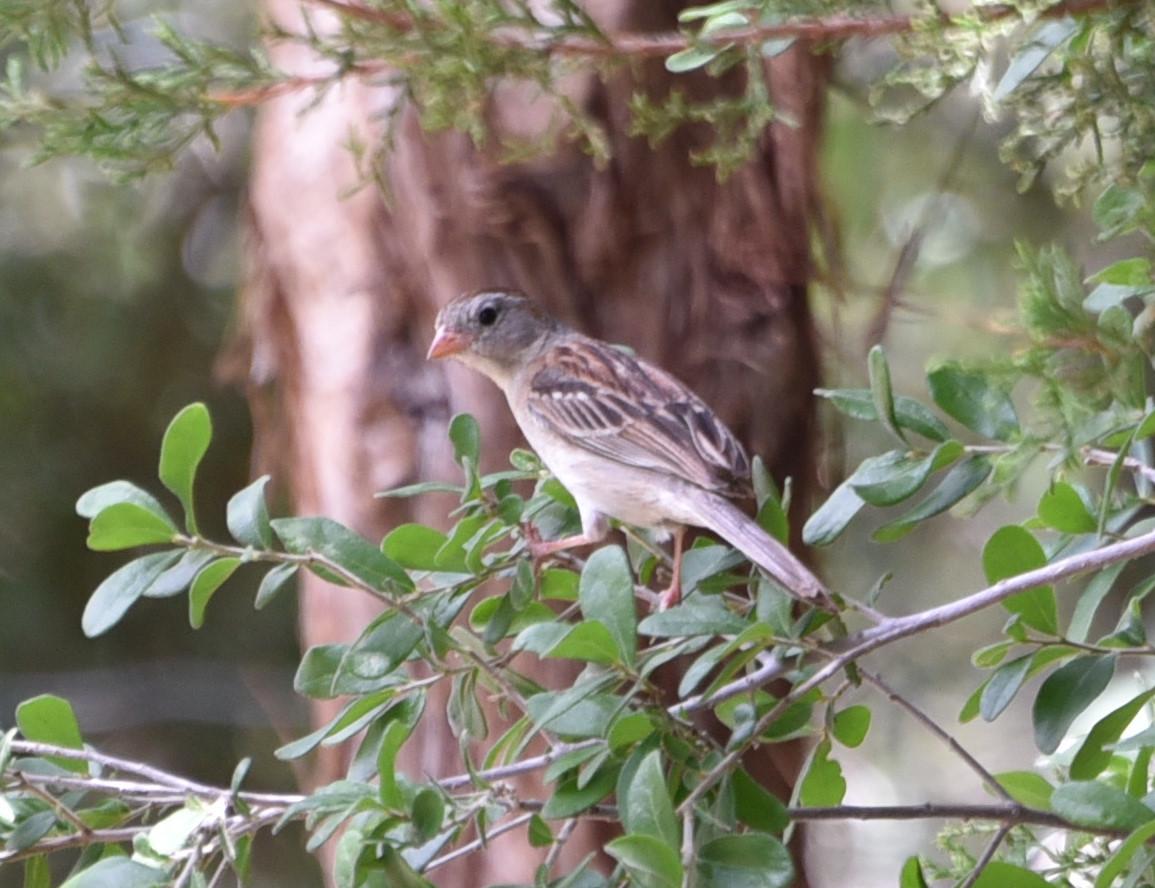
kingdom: Animalia
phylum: Chordata
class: Aves
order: Passeriformes
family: Passerellidae
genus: Spizella
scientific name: Spizella pusilla
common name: Field sparrow
